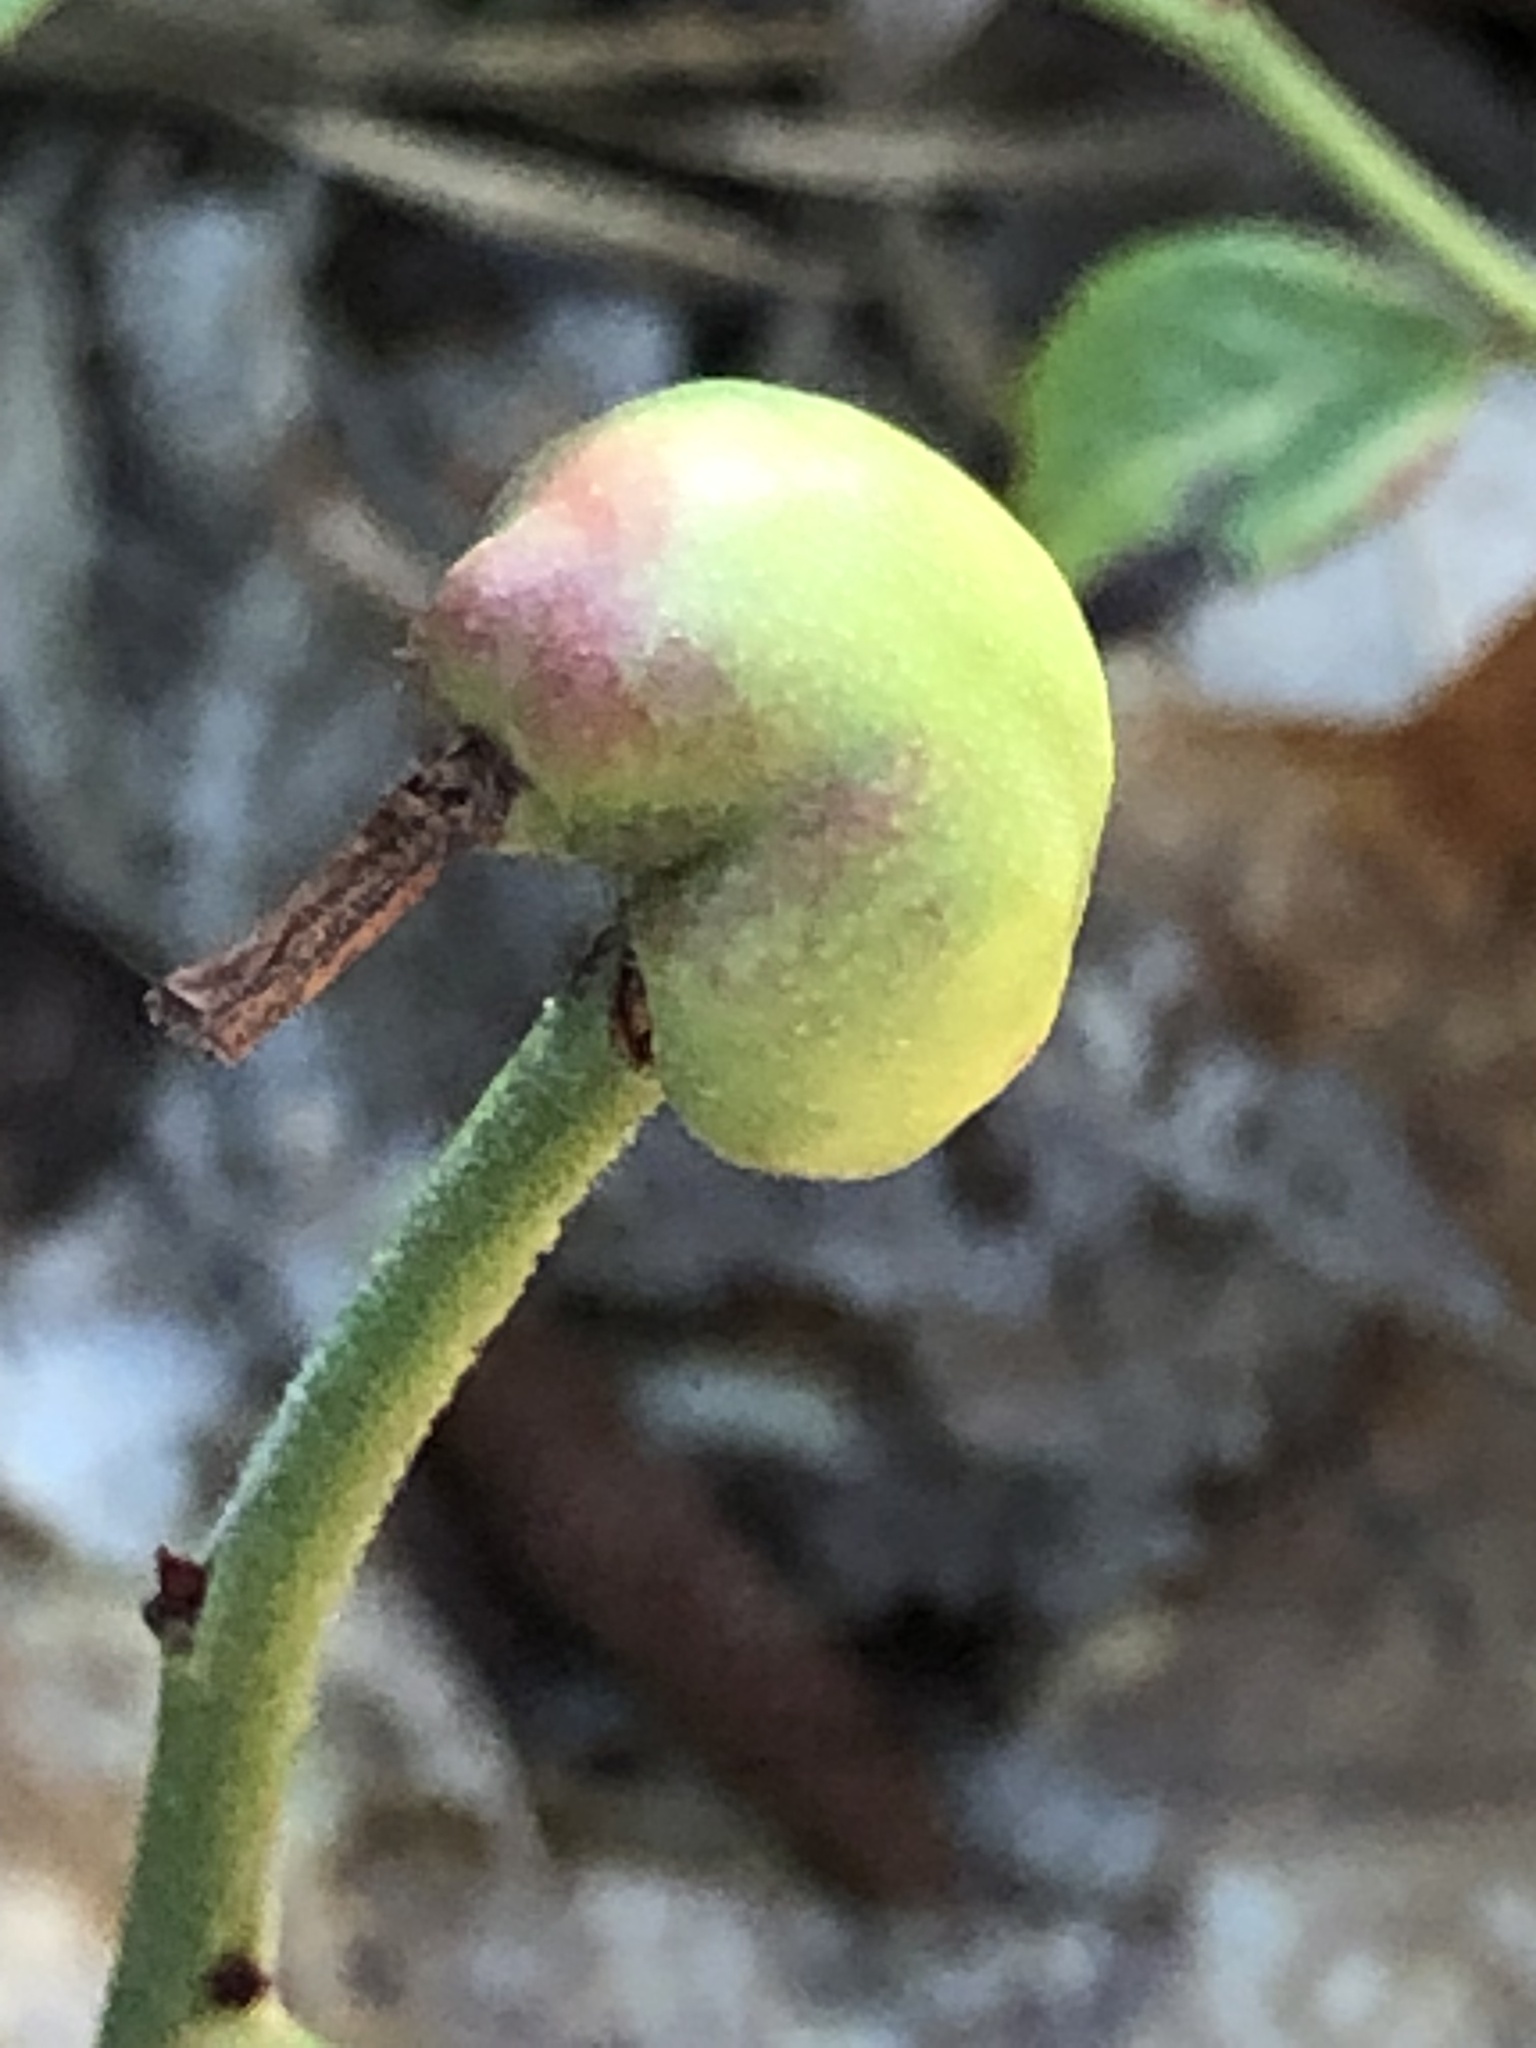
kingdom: Animalia
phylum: Arthropoda
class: Insecta
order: Hymenoptera
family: Pteromalidae
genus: Hemadas
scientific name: Hemadas nubilipennis
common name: Blueberry stem gall wasp
